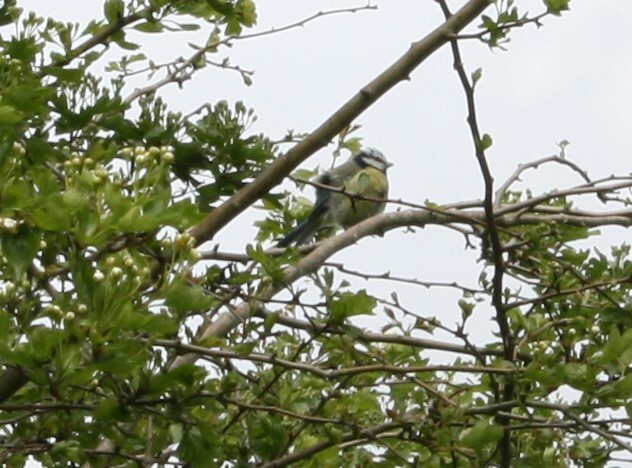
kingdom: Animalia
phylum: Chordata
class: Aves
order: Passeriformes
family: Paridae
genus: Cyanistes
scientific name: Cyanistes caeruleus
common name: Eurasian blue tit
